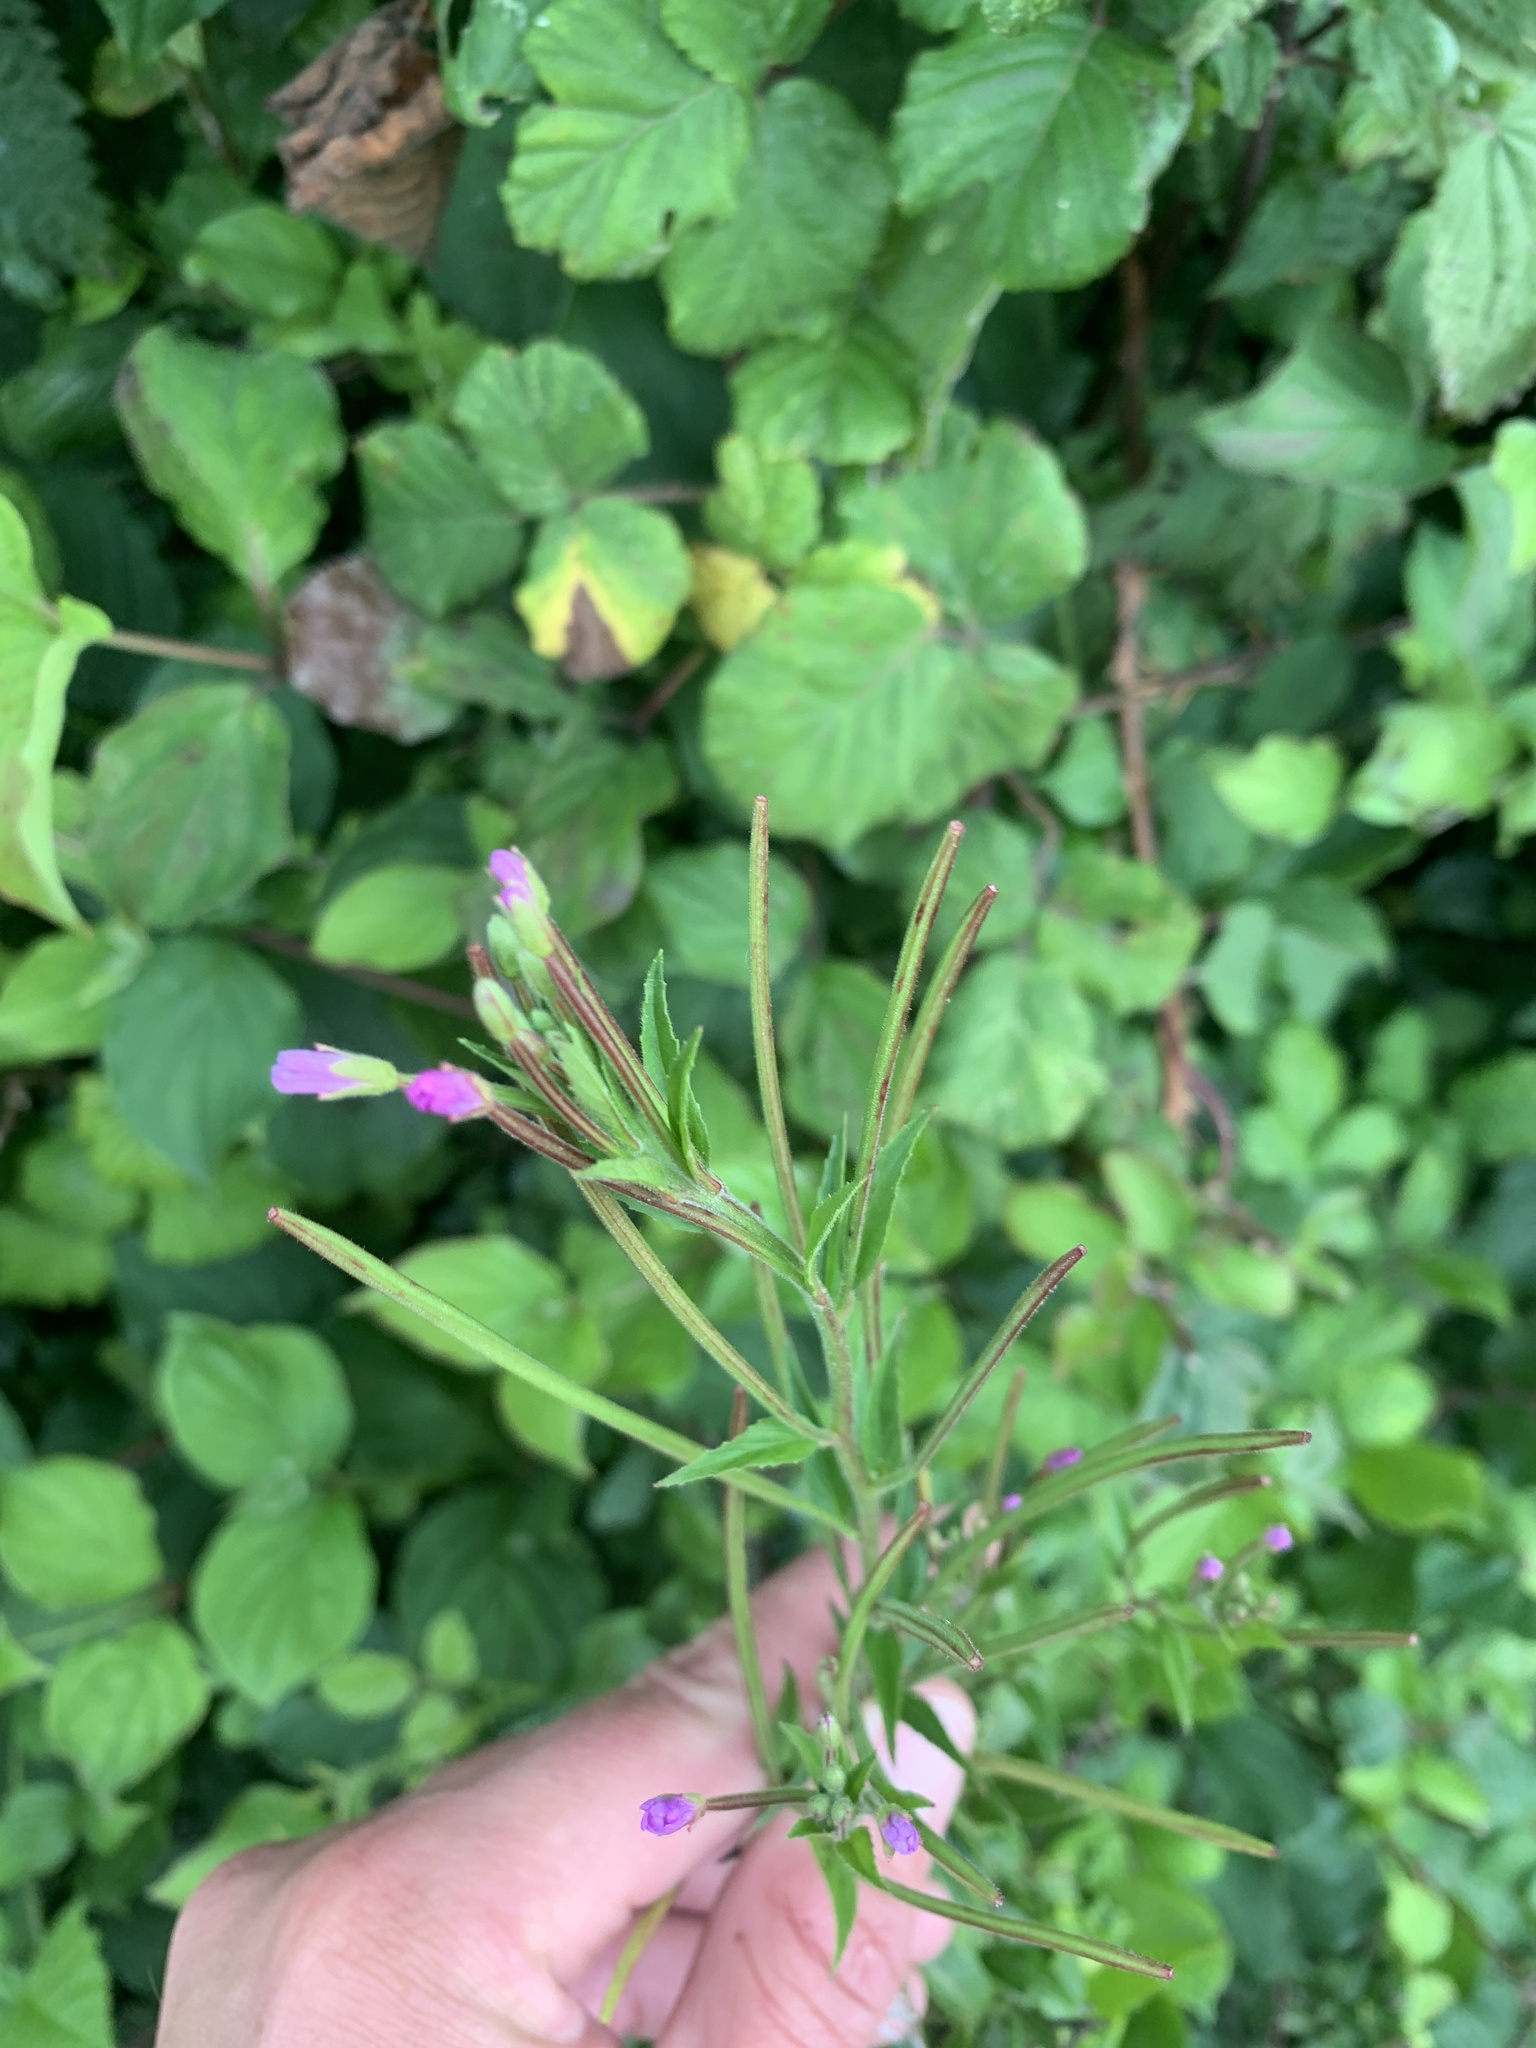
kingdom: Plantae
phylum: Tracheophyta
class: Magnoliopsida
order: Myrtales
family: Onagraceae
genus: Epilobium
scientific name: Epilobium parviflorum
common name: Hoary willowherb
